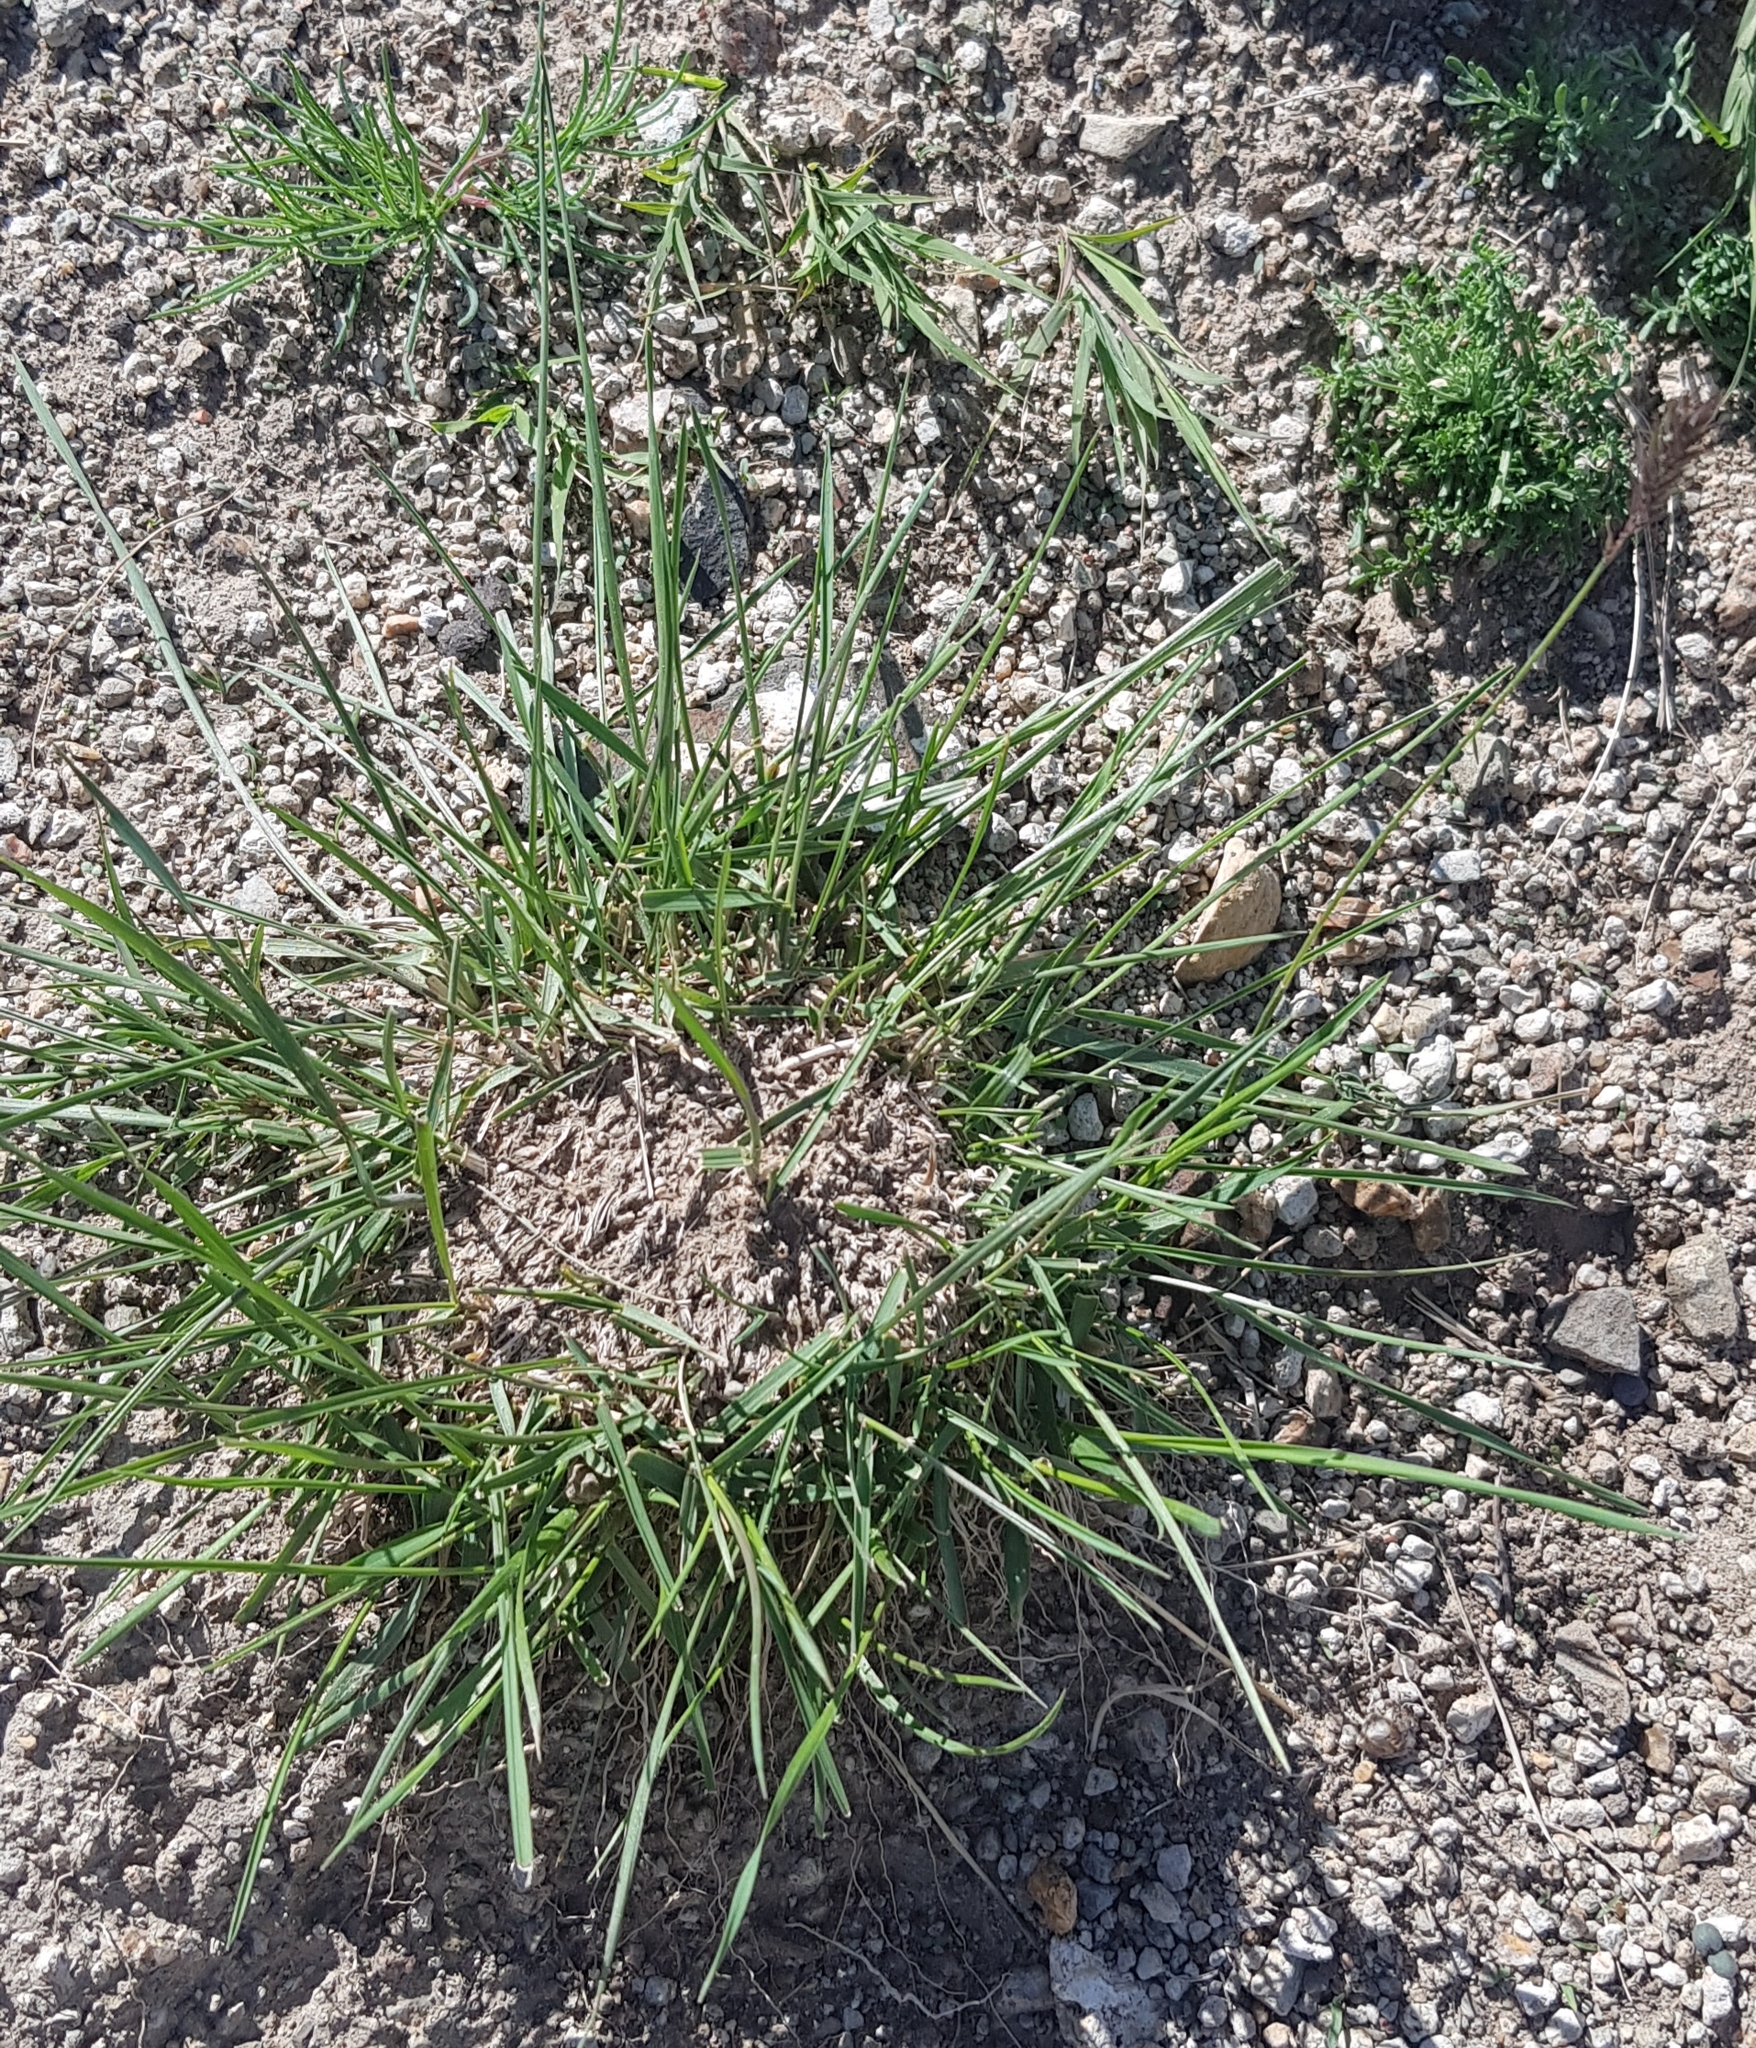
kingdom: Plantae
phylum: Tracheophyta
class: Liliopsida
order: Poales
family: Poaceae
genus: Cleistogenes
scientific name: Cleistogenes squarrosa
